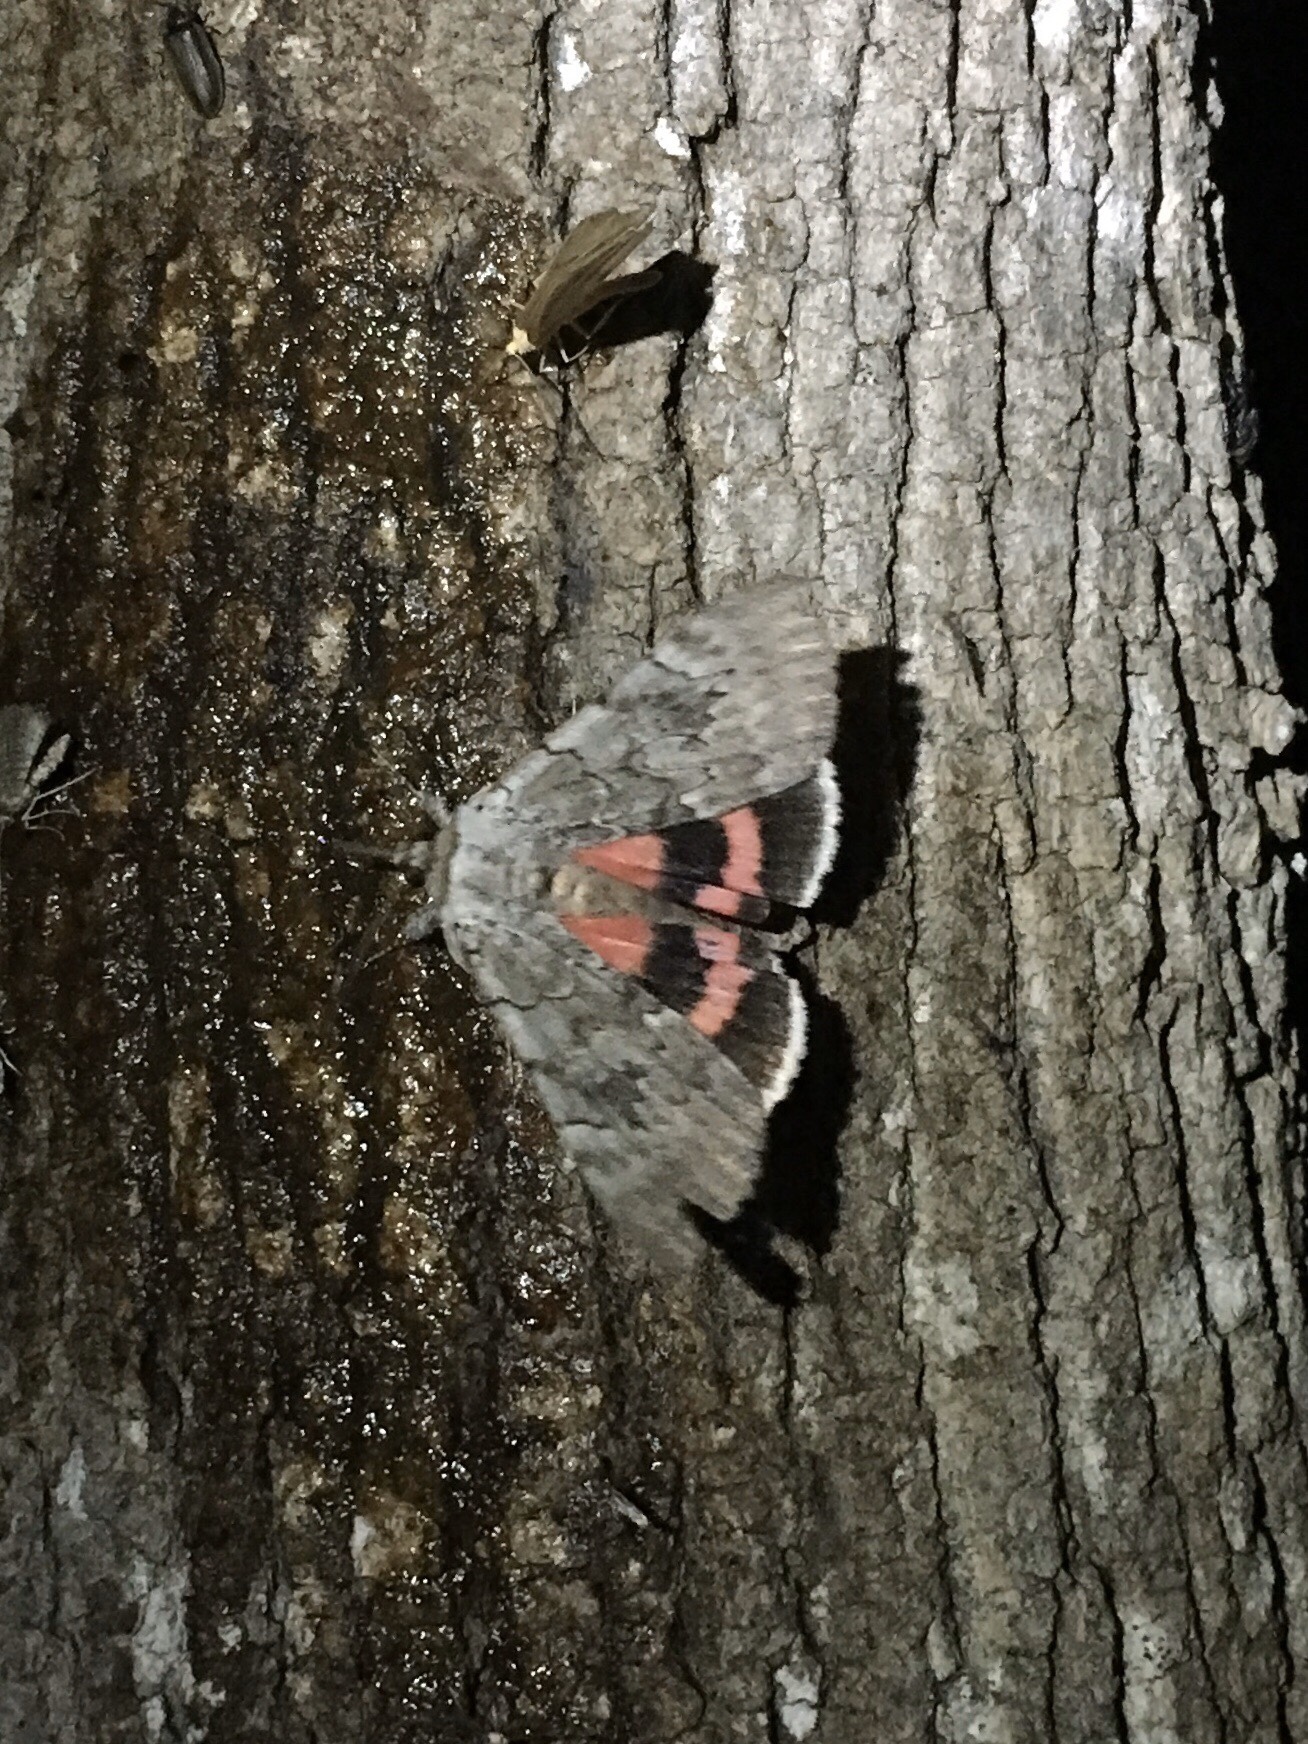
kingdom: Animalia
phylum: Arthropoda
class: Insecta
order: Lepidoptera
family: Erebidae
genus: Catocala
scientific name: Catocala concumbens
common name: Pink underwing
